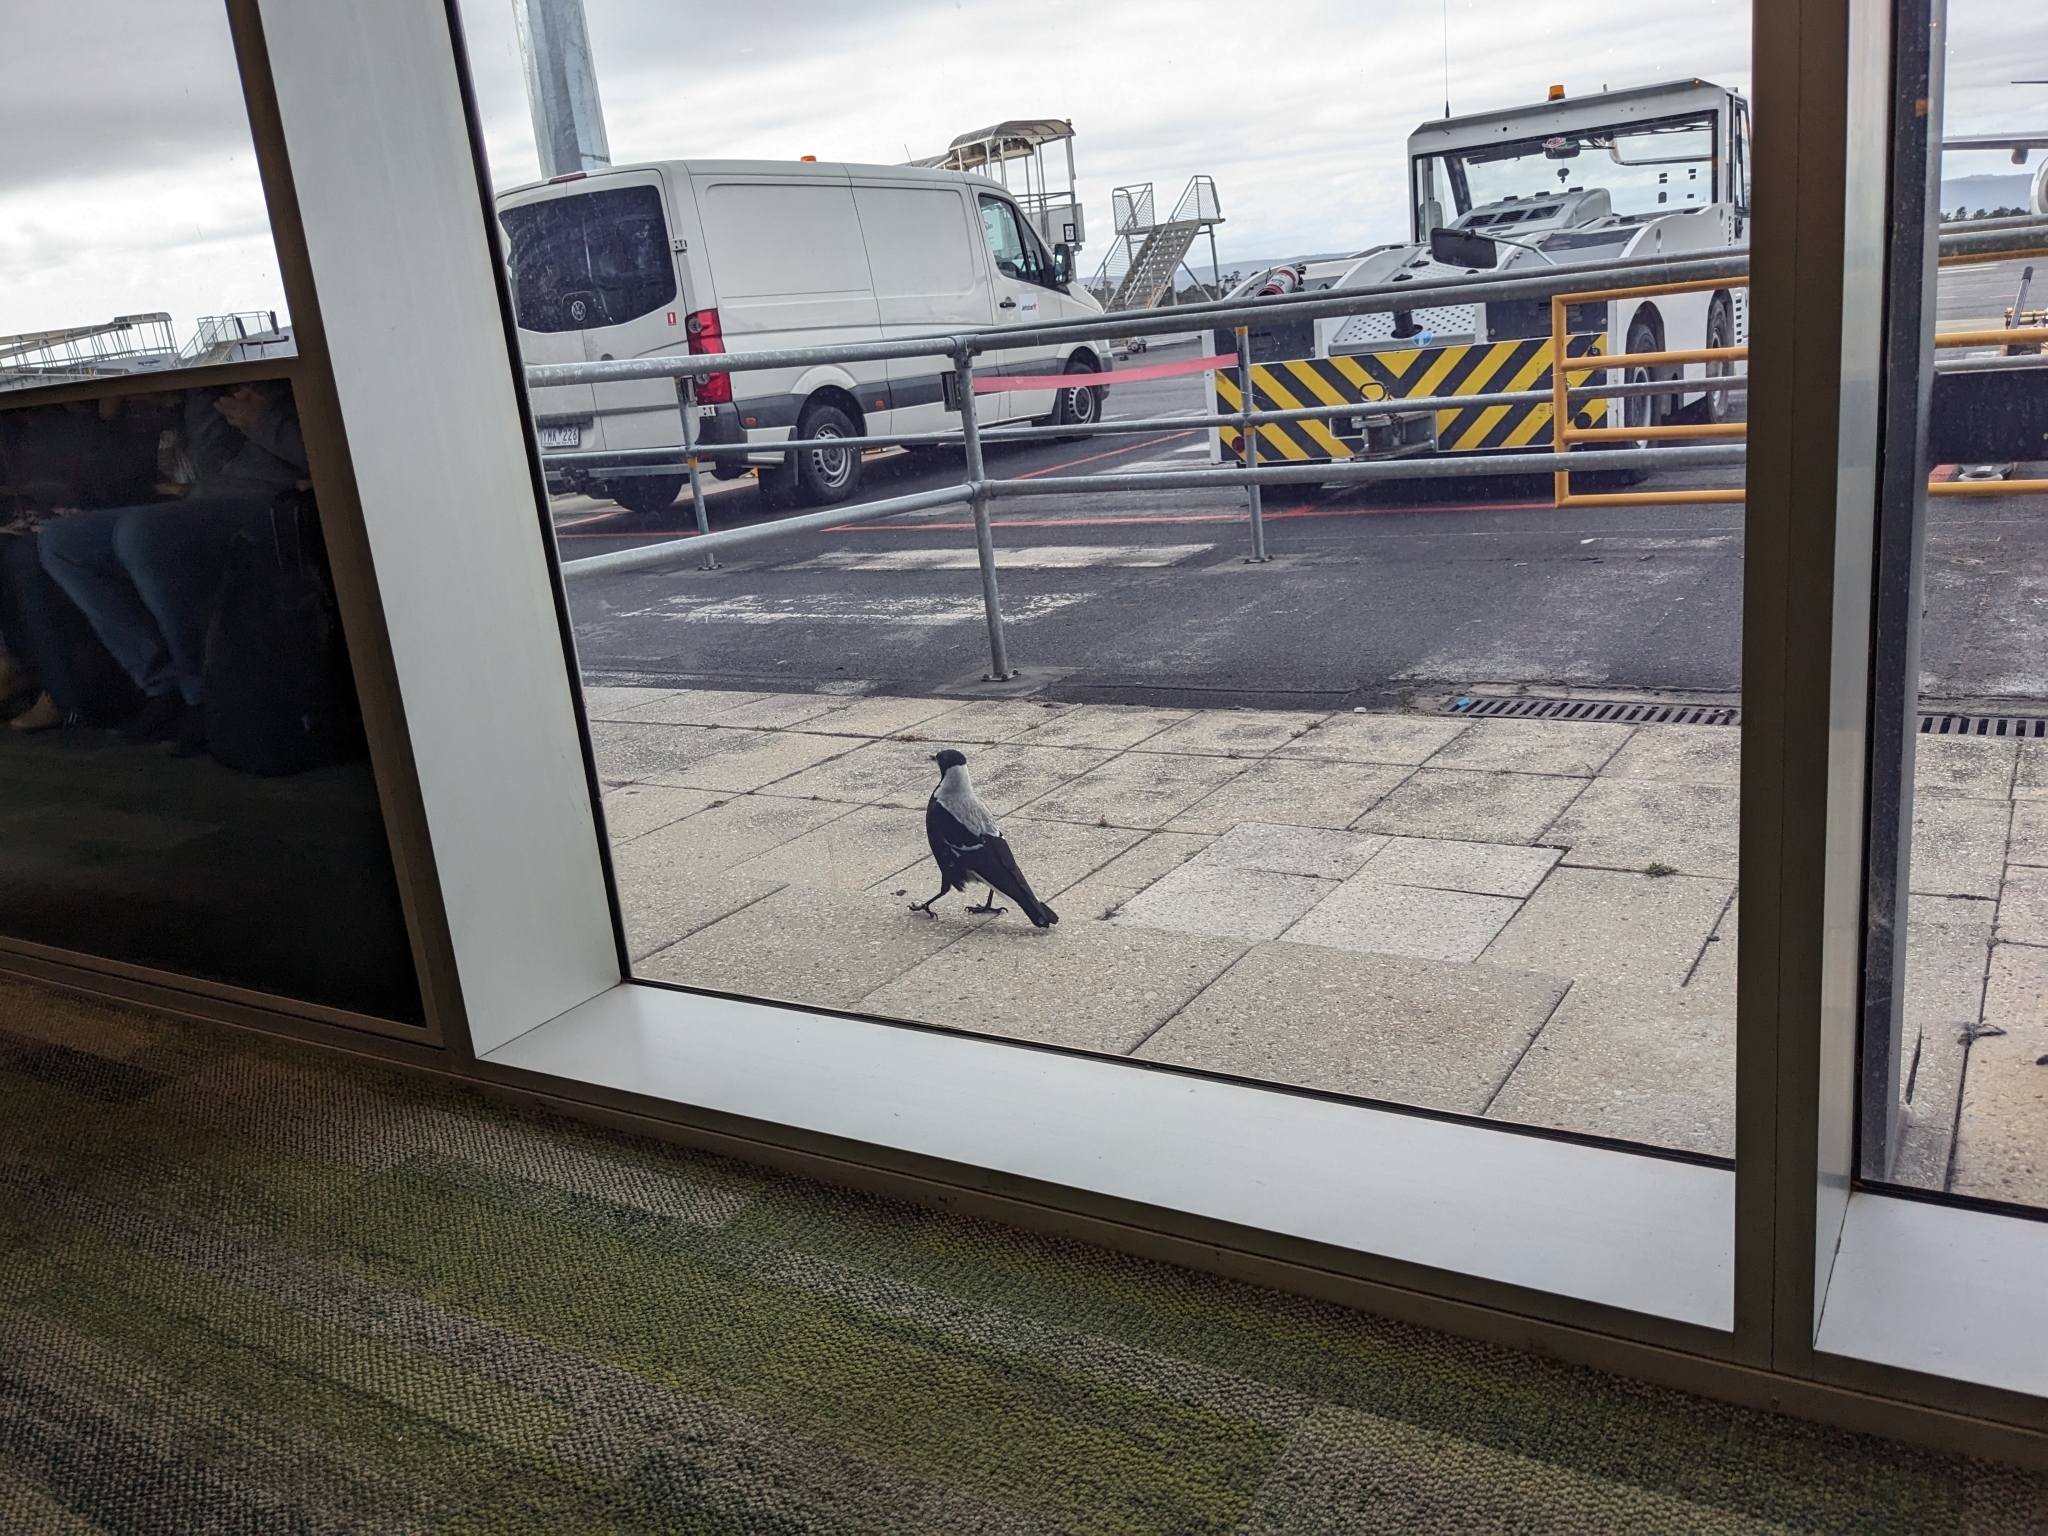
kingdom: Animalia
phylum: Chordata
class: Aves
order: Passeriformes
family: Cracticidae
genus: Gymnorhina
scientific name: Gymnorhina tibicen
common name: Australian magpie
